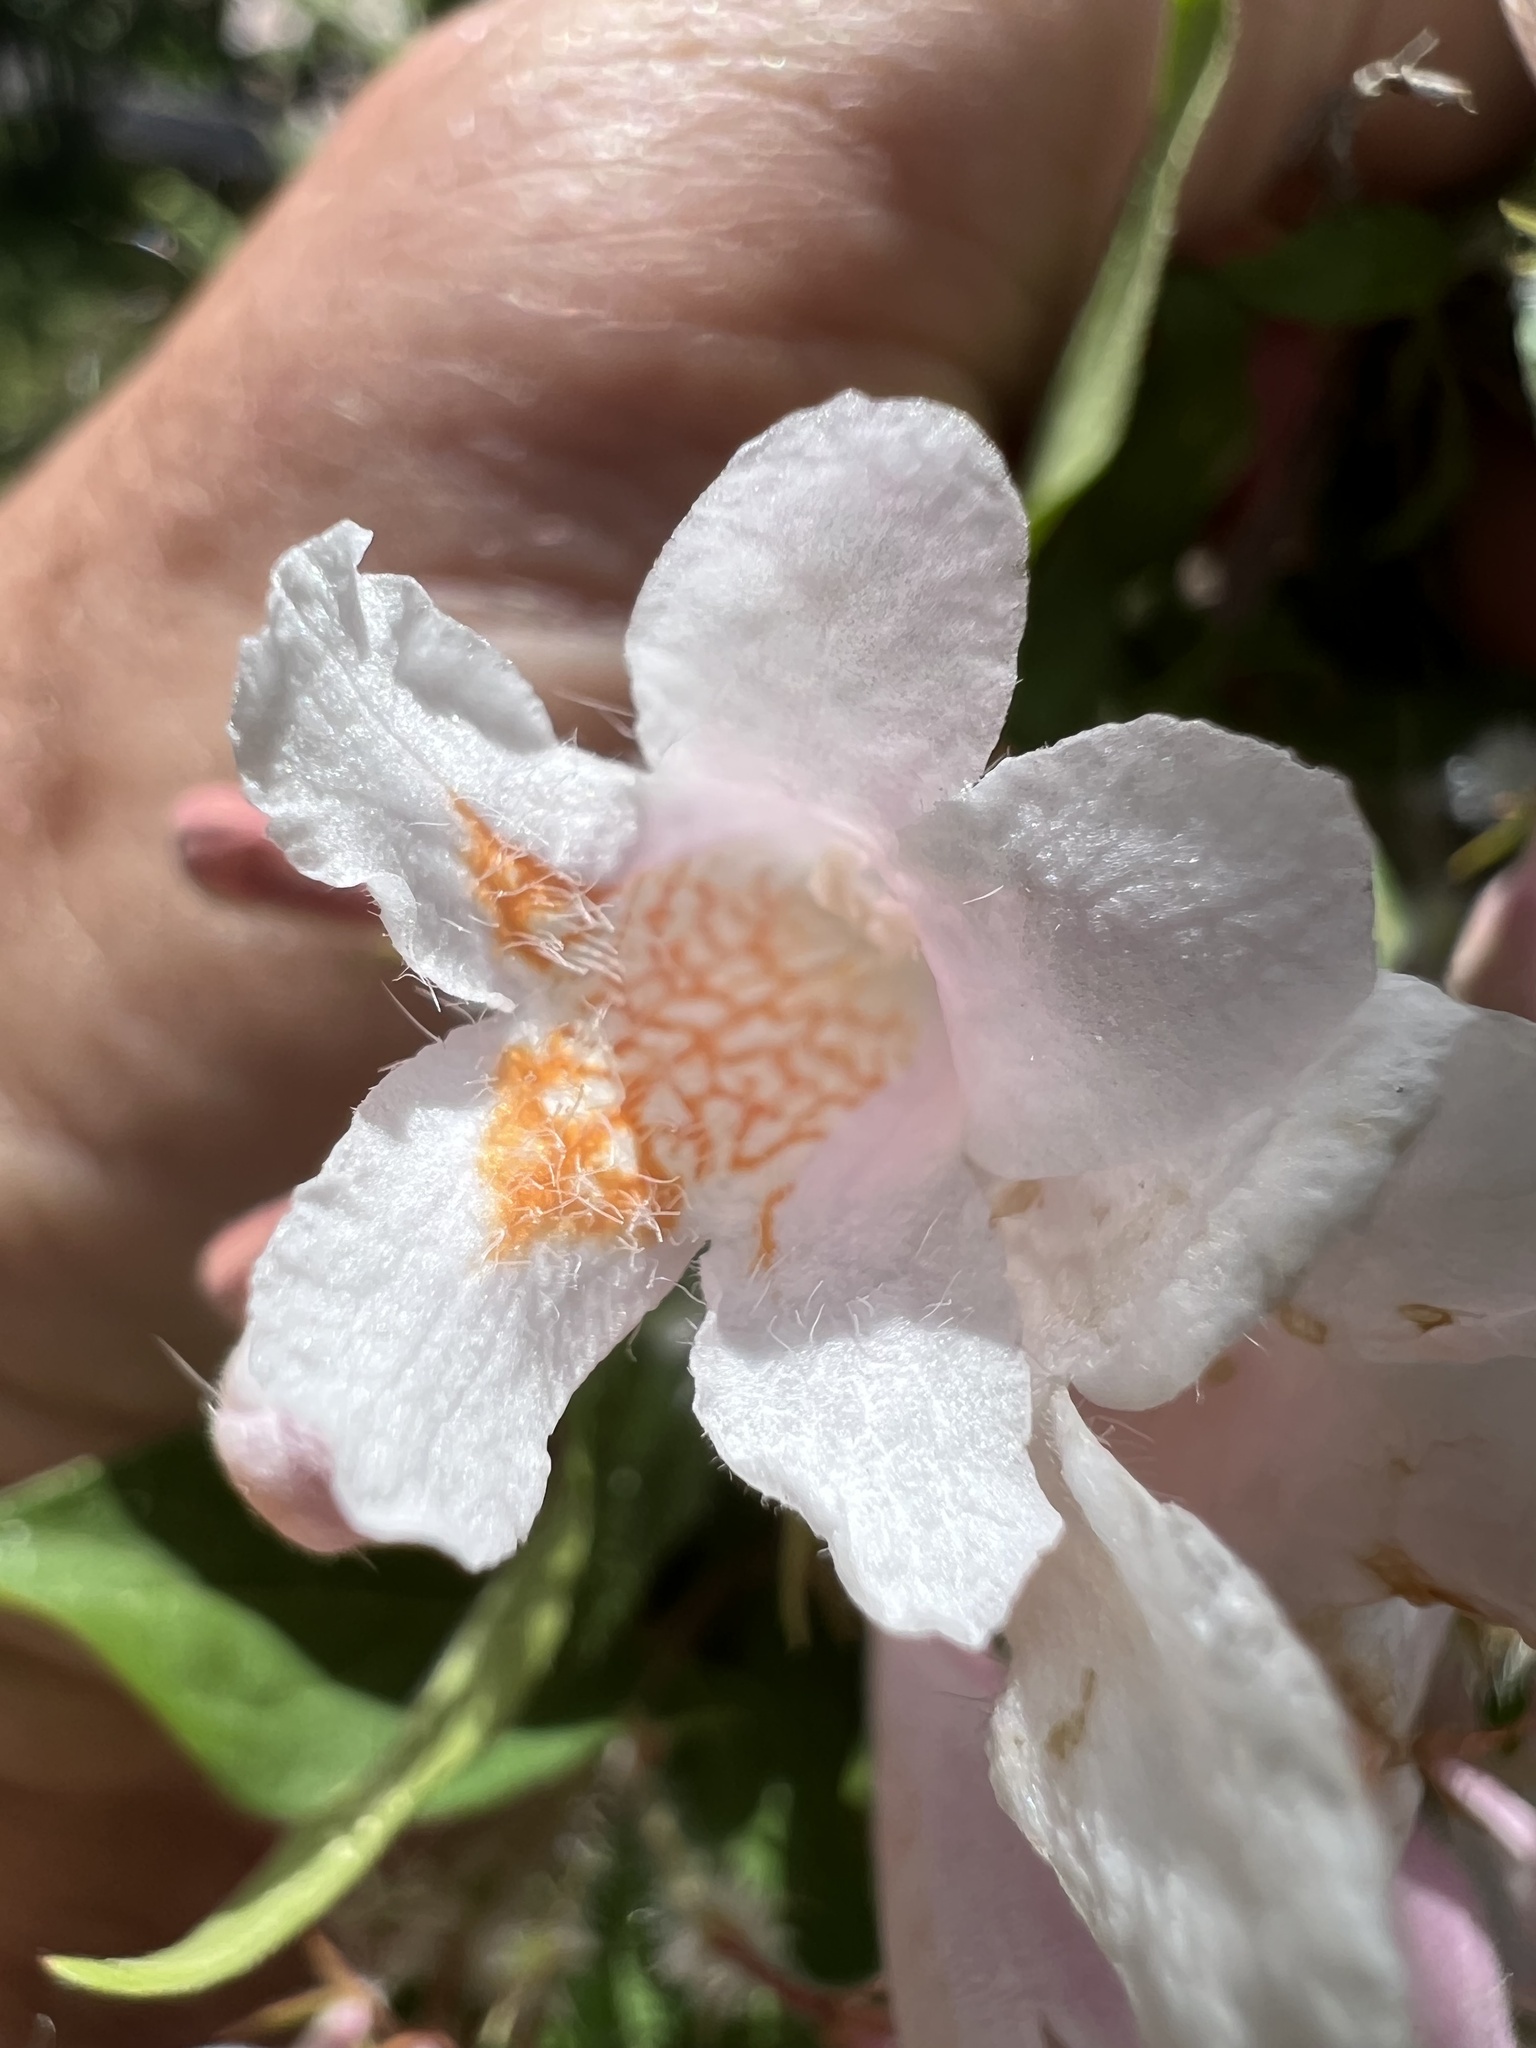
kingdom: Plantae
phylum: Tracheophyta
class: Magnoliopsida
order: Dipsacales
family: Caprifoliaceae
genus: Kolkwitzia
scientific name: Kolkwitzia amabilis
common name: Beautybush
